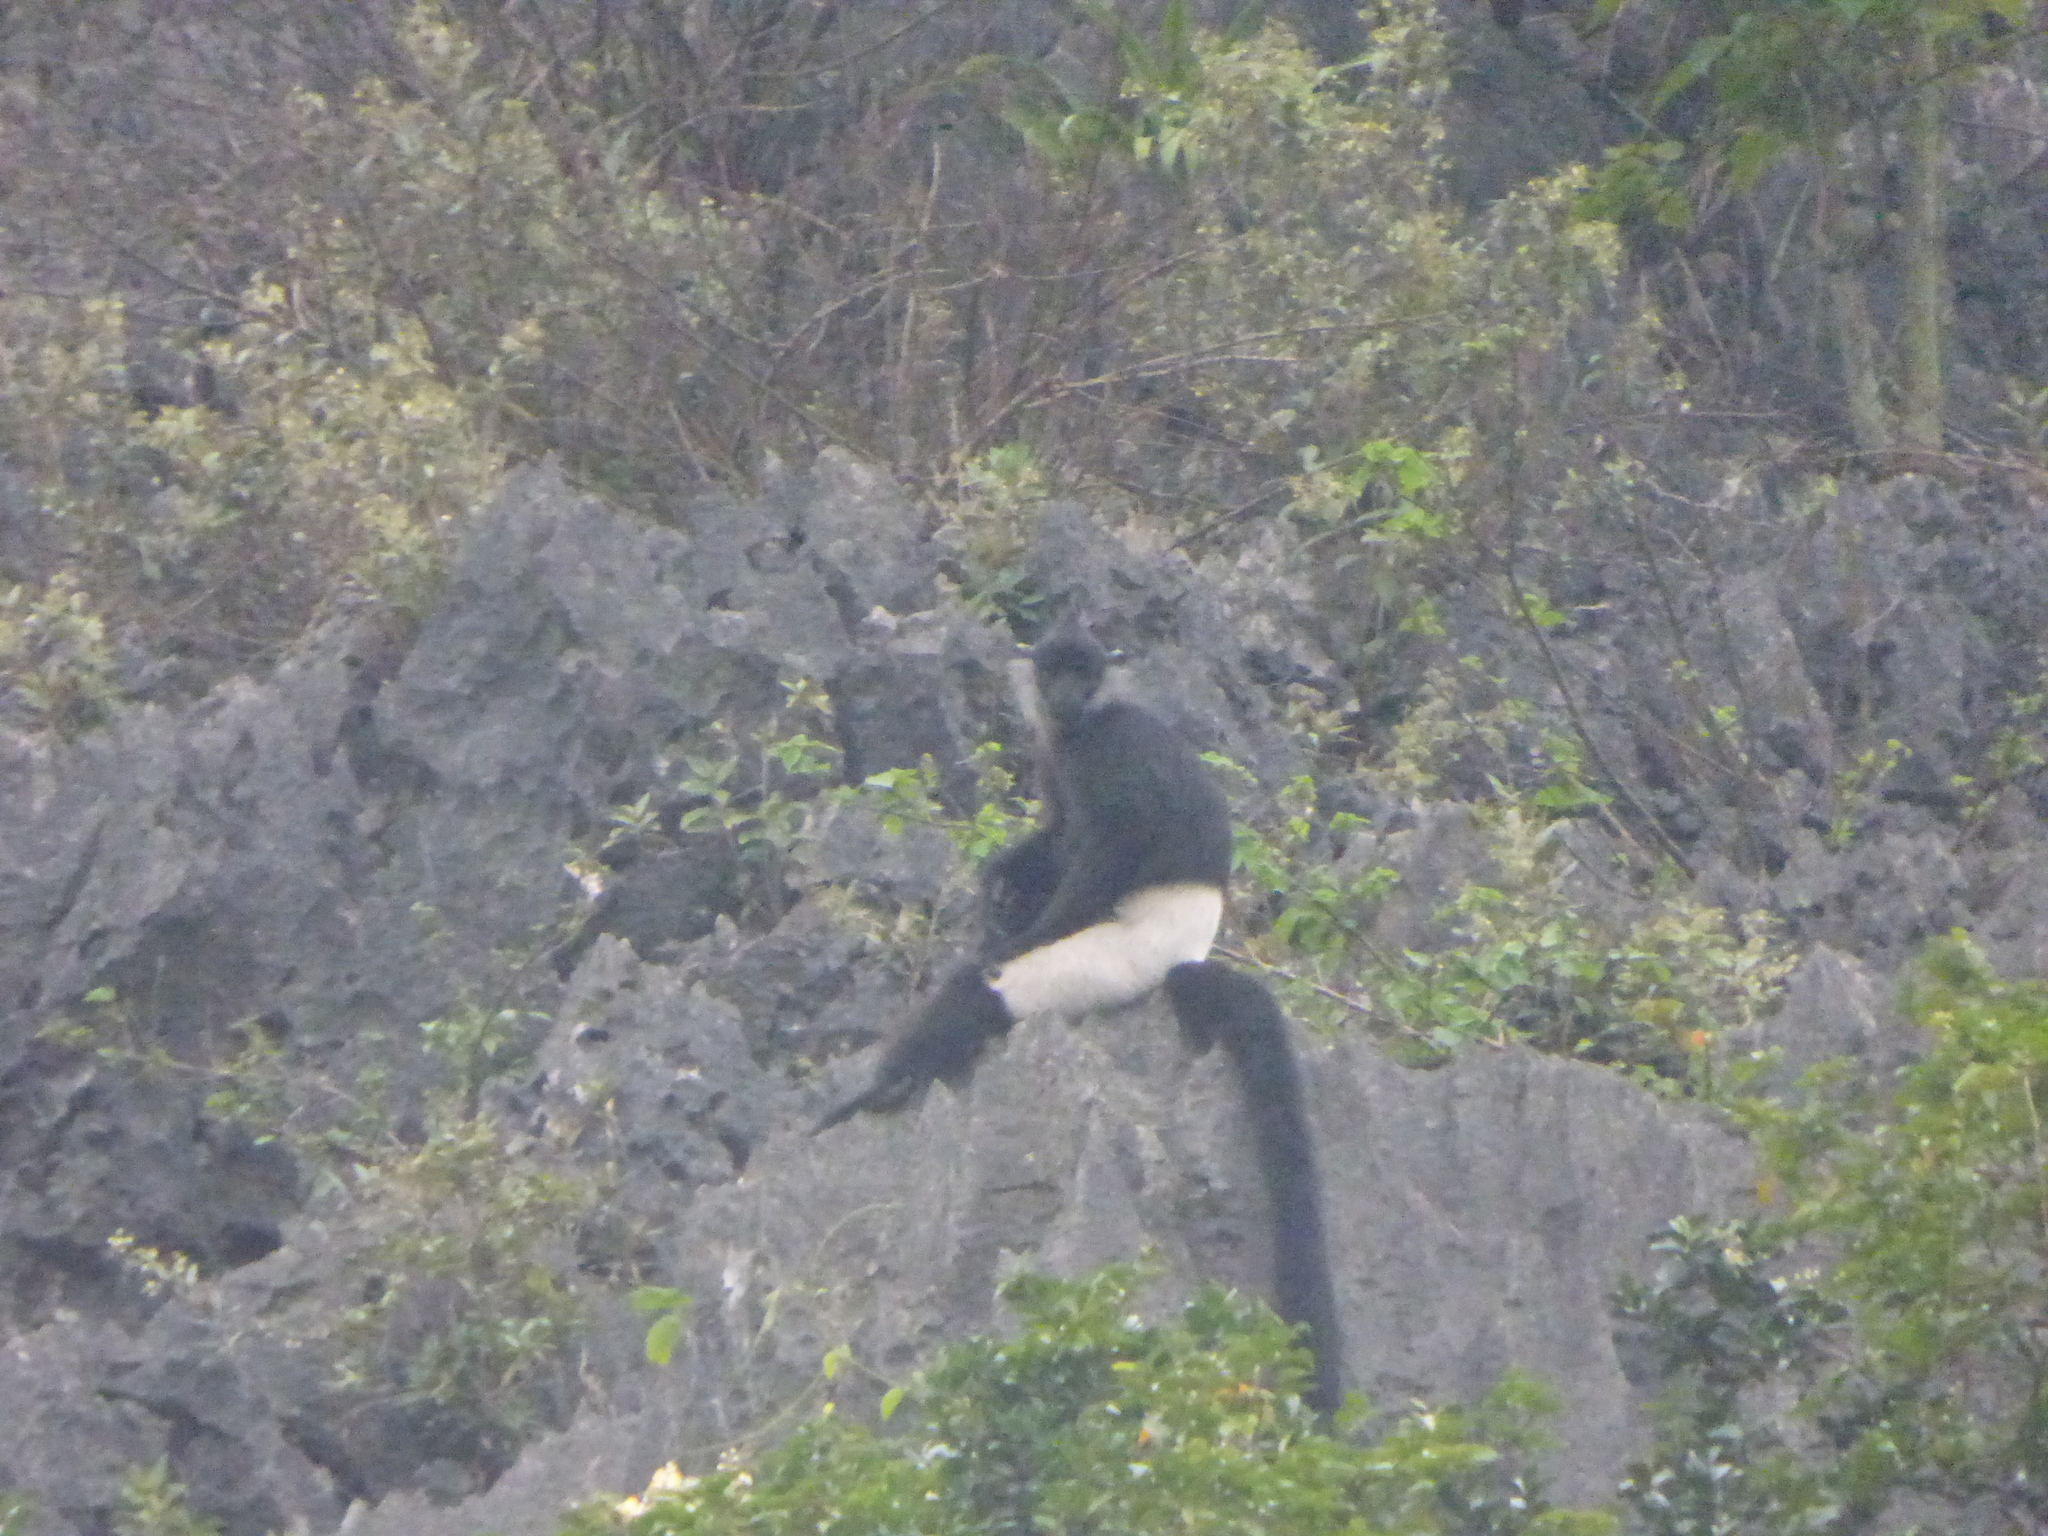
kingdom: Animalia
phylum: Chordata
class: Mammalia
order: Primates
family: Cercopithecidae
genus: Trachypithecus
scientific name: Trachypithecus delacouri
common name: Delacour's langur
